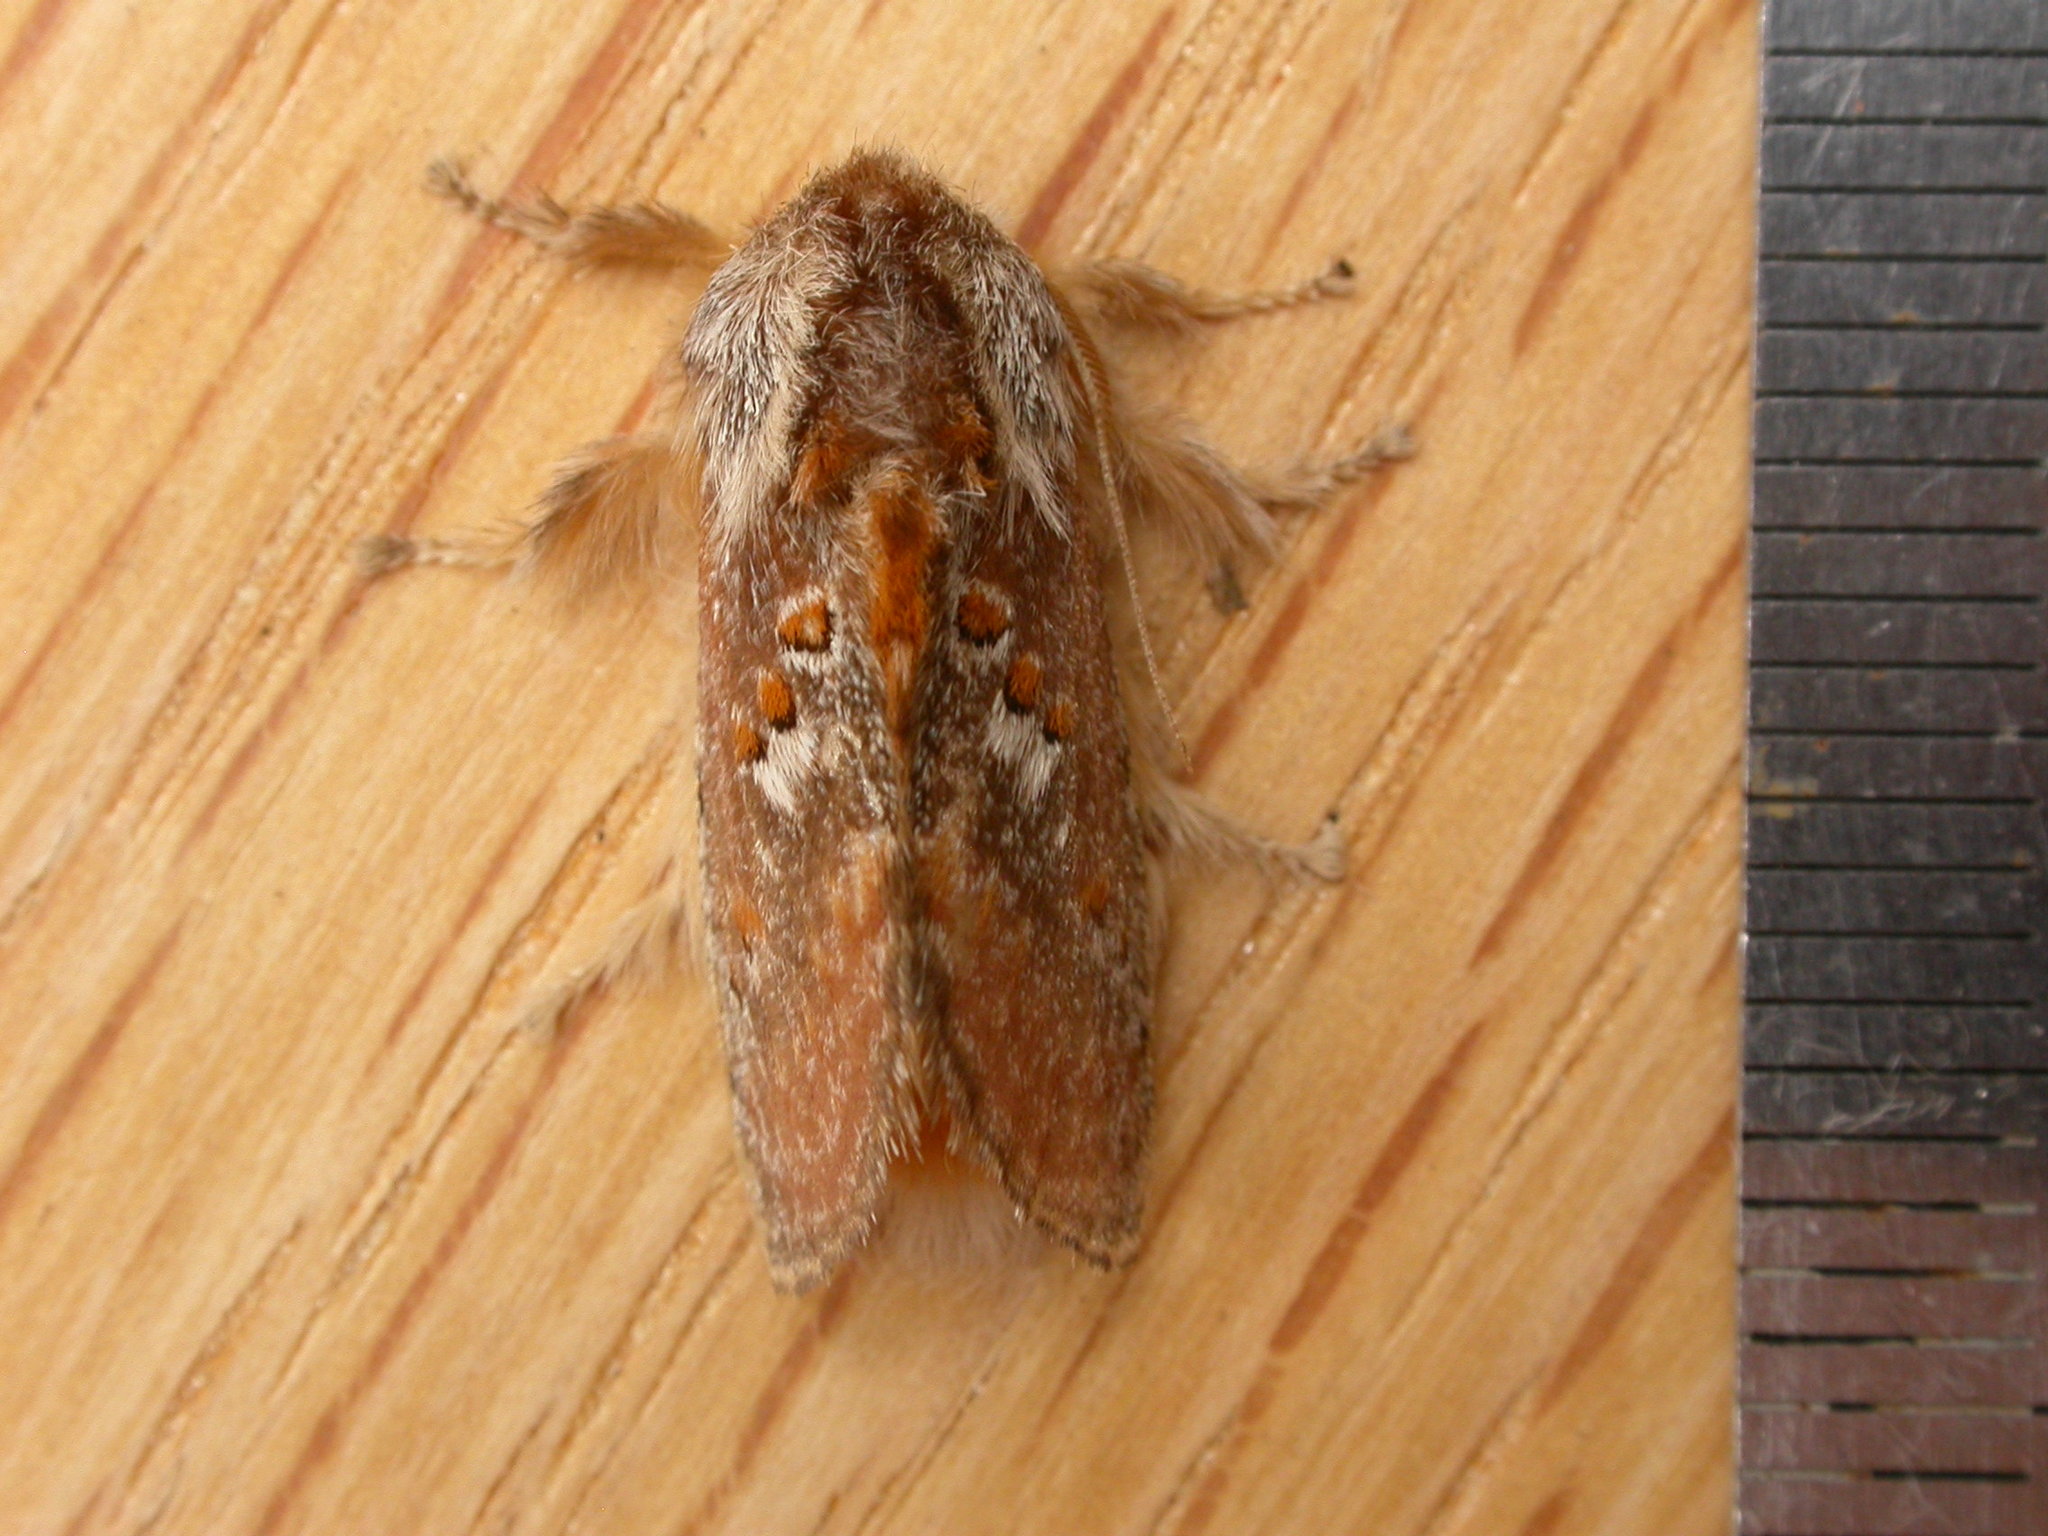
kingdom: Animalia
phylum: Arthropoda
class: Insecta
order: Lepidoptera
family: Limacodidae
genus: Pseudanapaea
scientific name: Pseudanapaea transvestita
